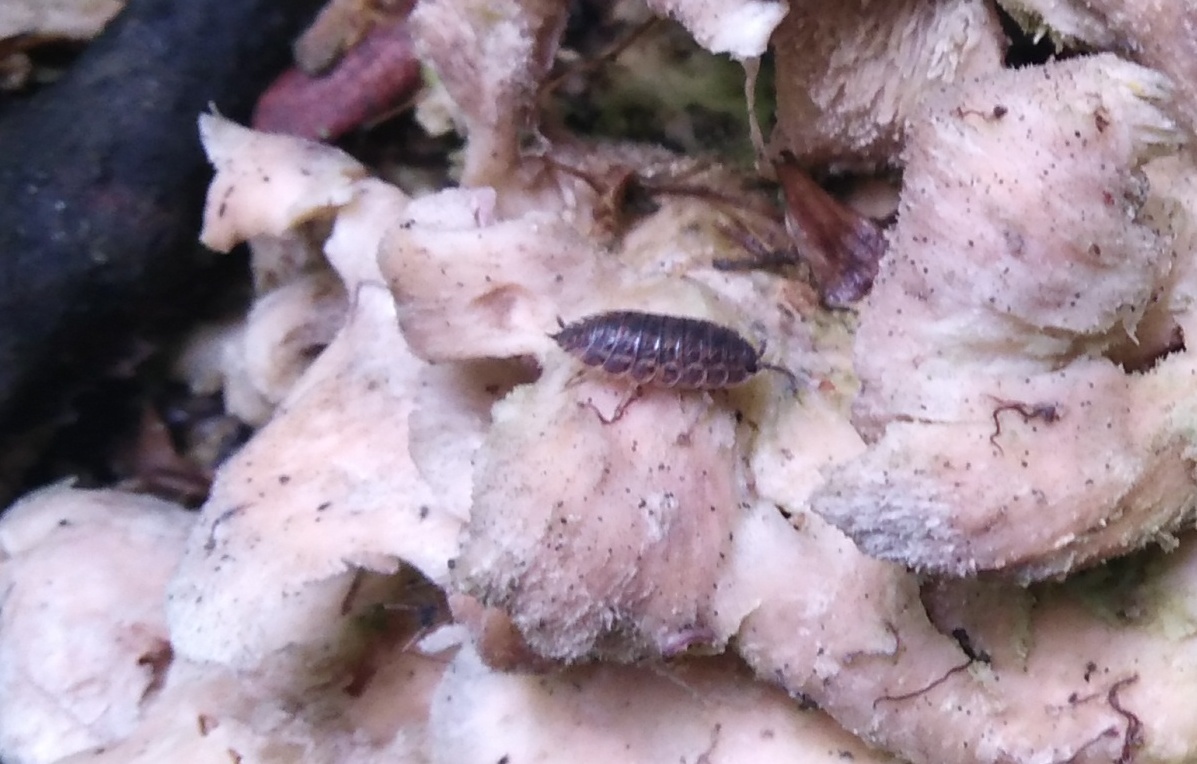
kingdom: Animalia
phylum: Arthropoda
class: Malacostraca
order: Isopoda
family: Trachelipodidae
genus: Trachelipus
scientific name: Trachelipus rathkii
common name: Isopod
